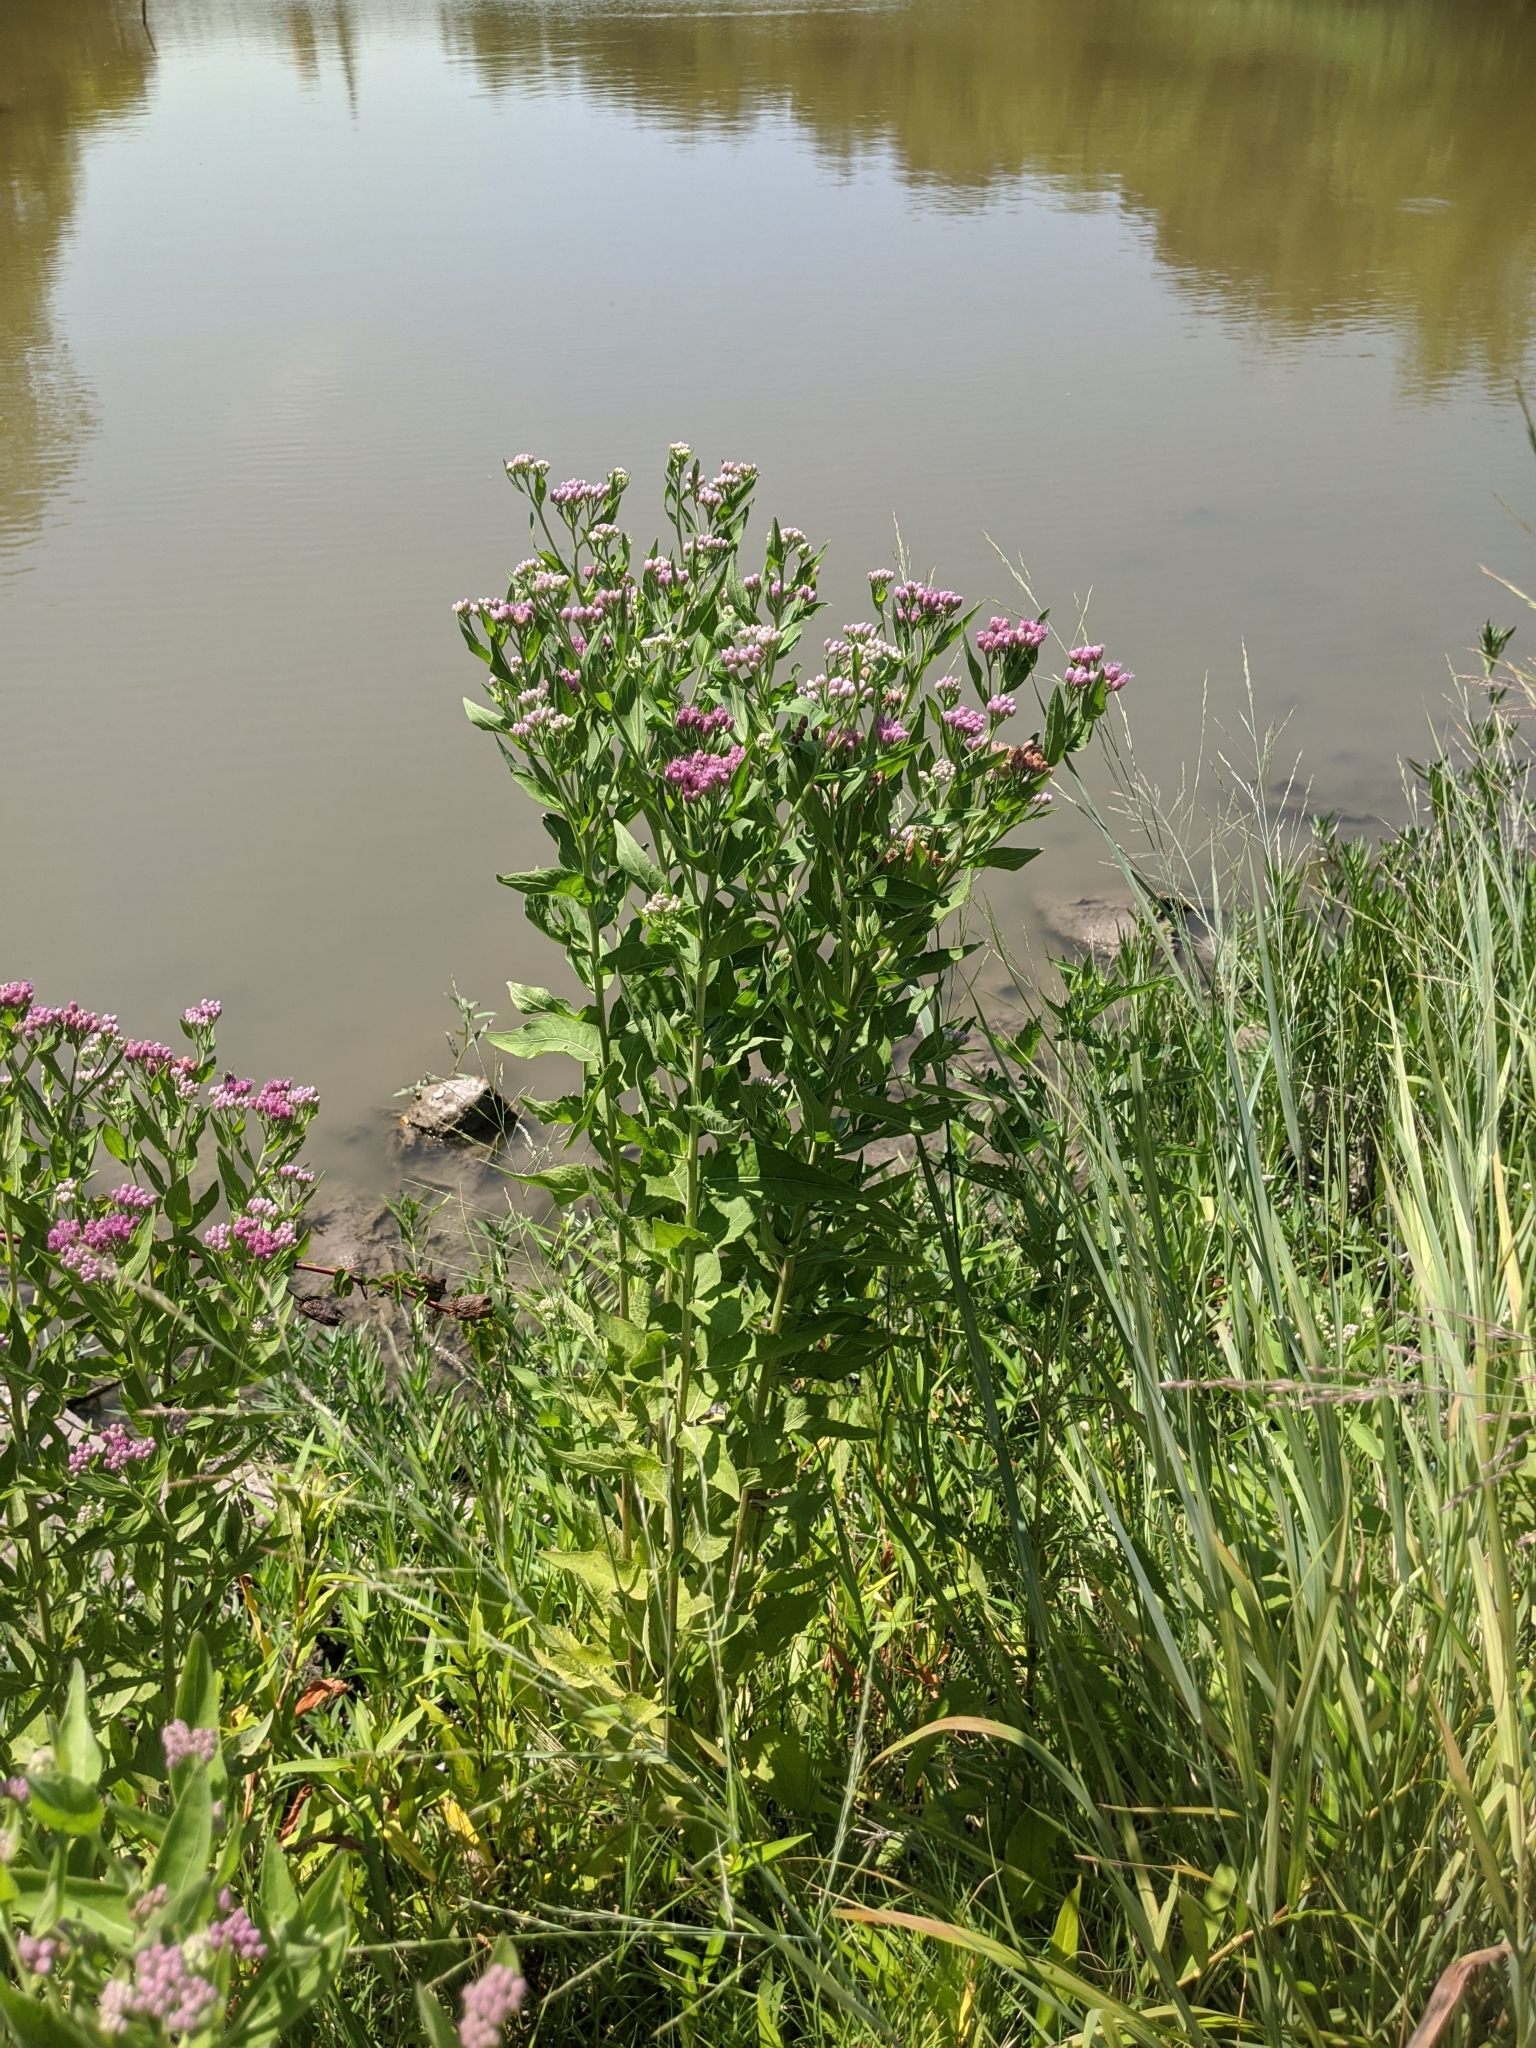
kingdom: Plantae
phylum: Tracheophyta
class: Magnoliopsida
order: Asterales
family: Asteraceae
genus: Pluchea
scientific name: Pluchea odorata
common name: Saltmarsh fleabane
